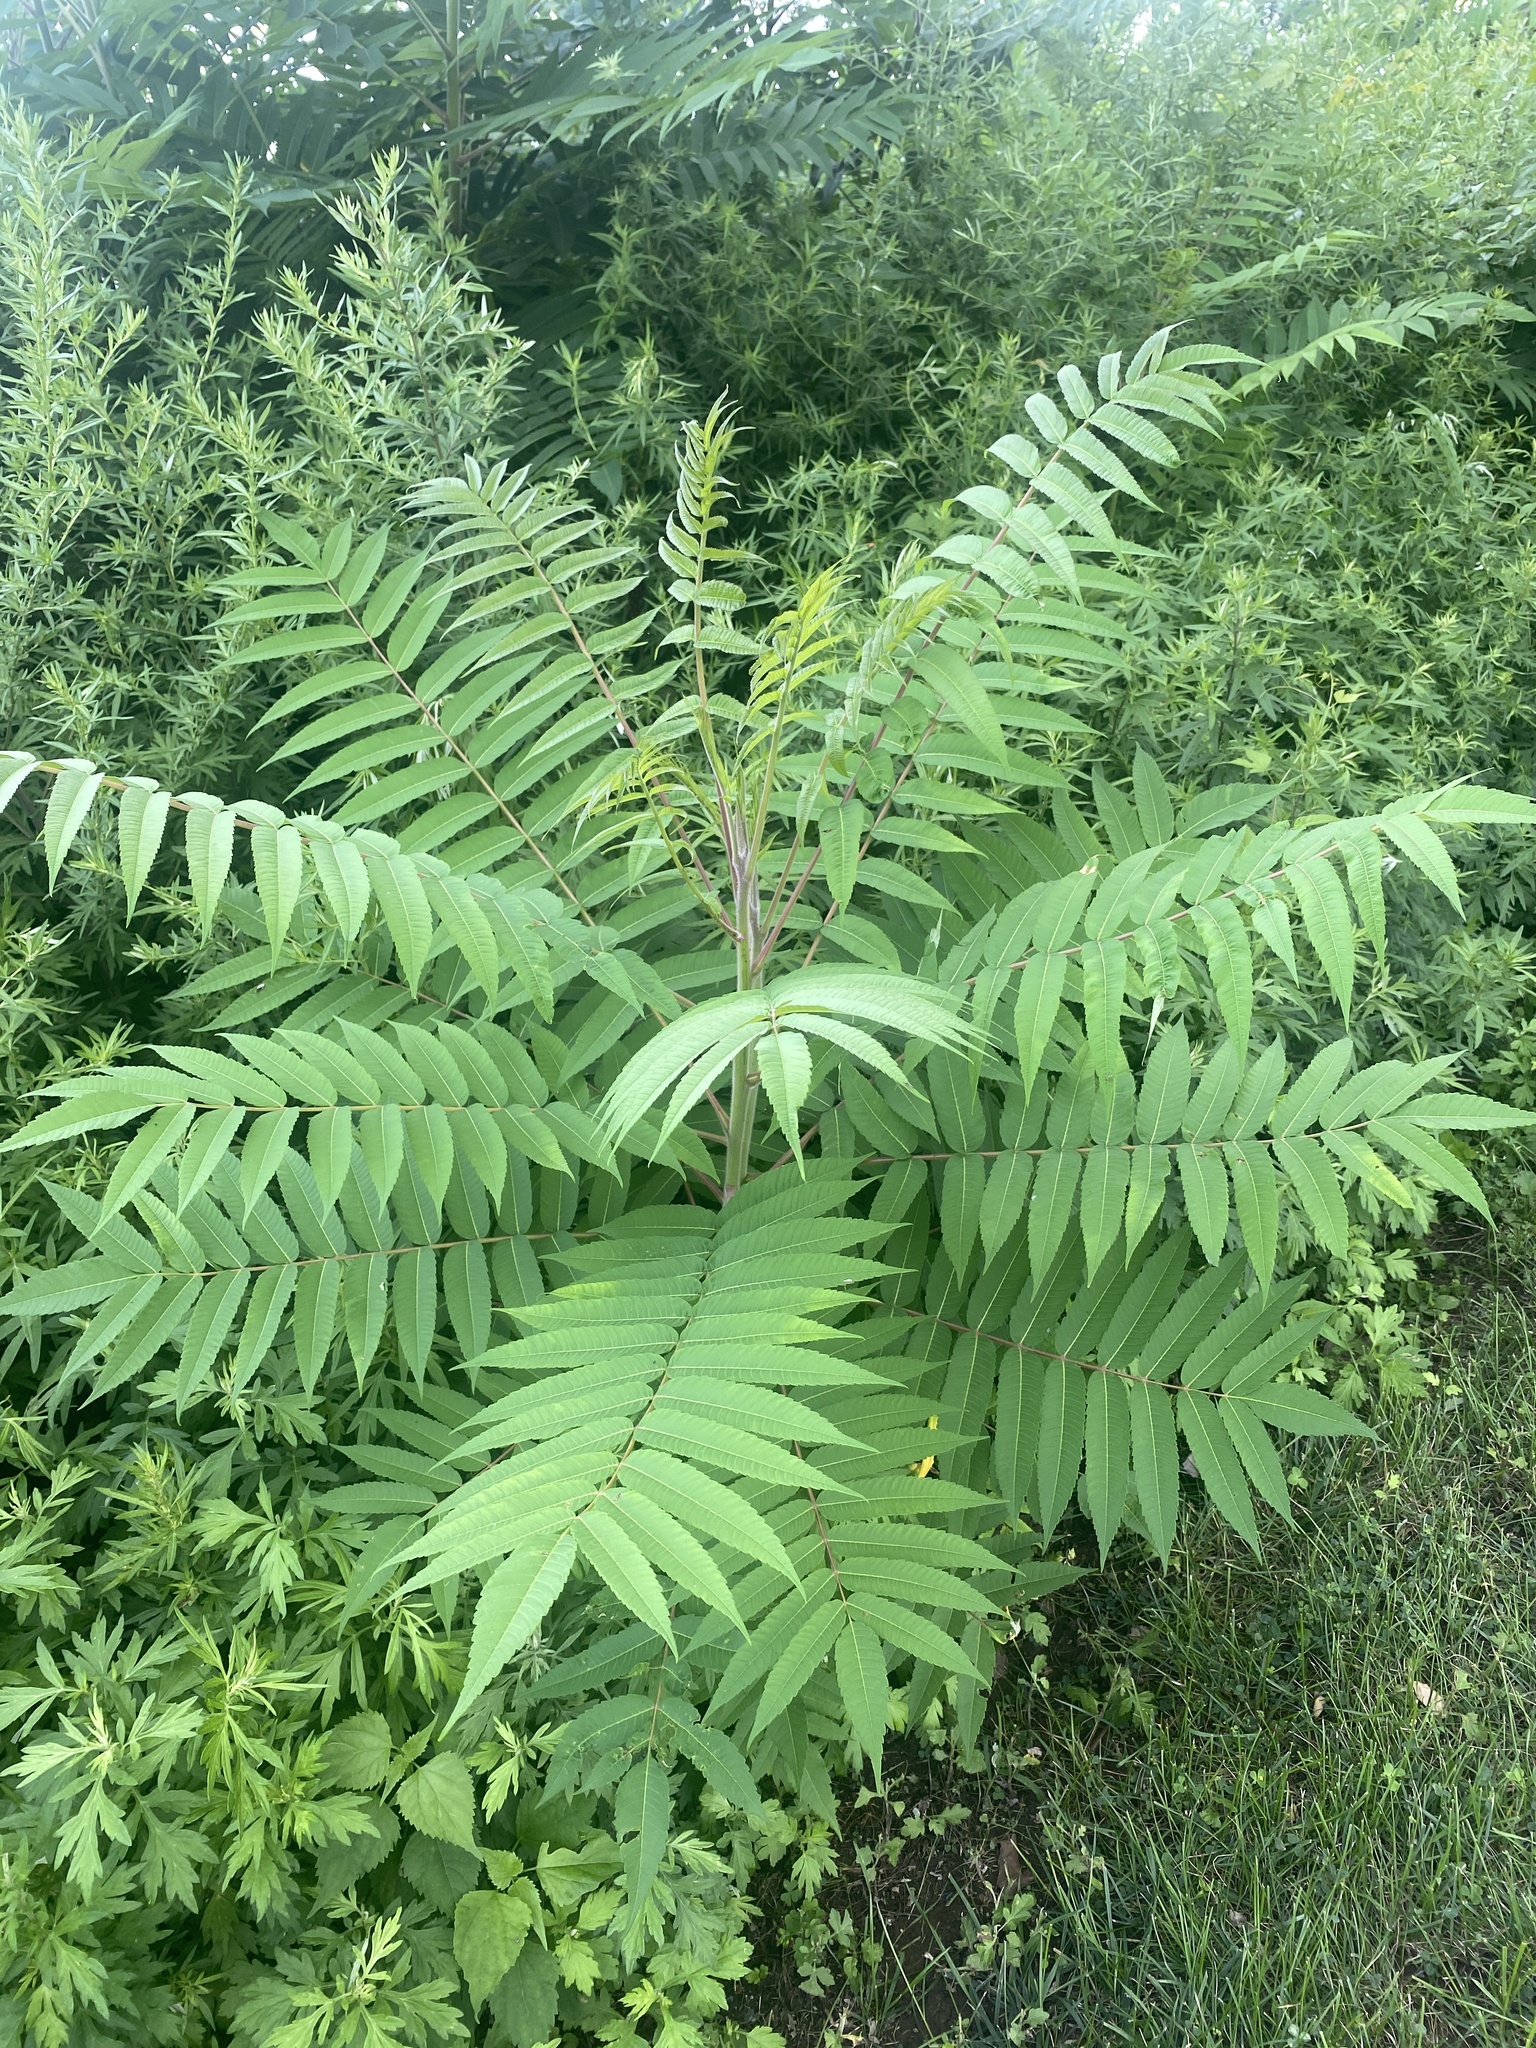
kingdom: Plantae
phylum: Tracheophyta
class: Magnoliopsida
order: Sapindales
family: Anacardiaceae
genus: Rhus
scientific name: Rhus typhina
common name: Staghorn sumac
